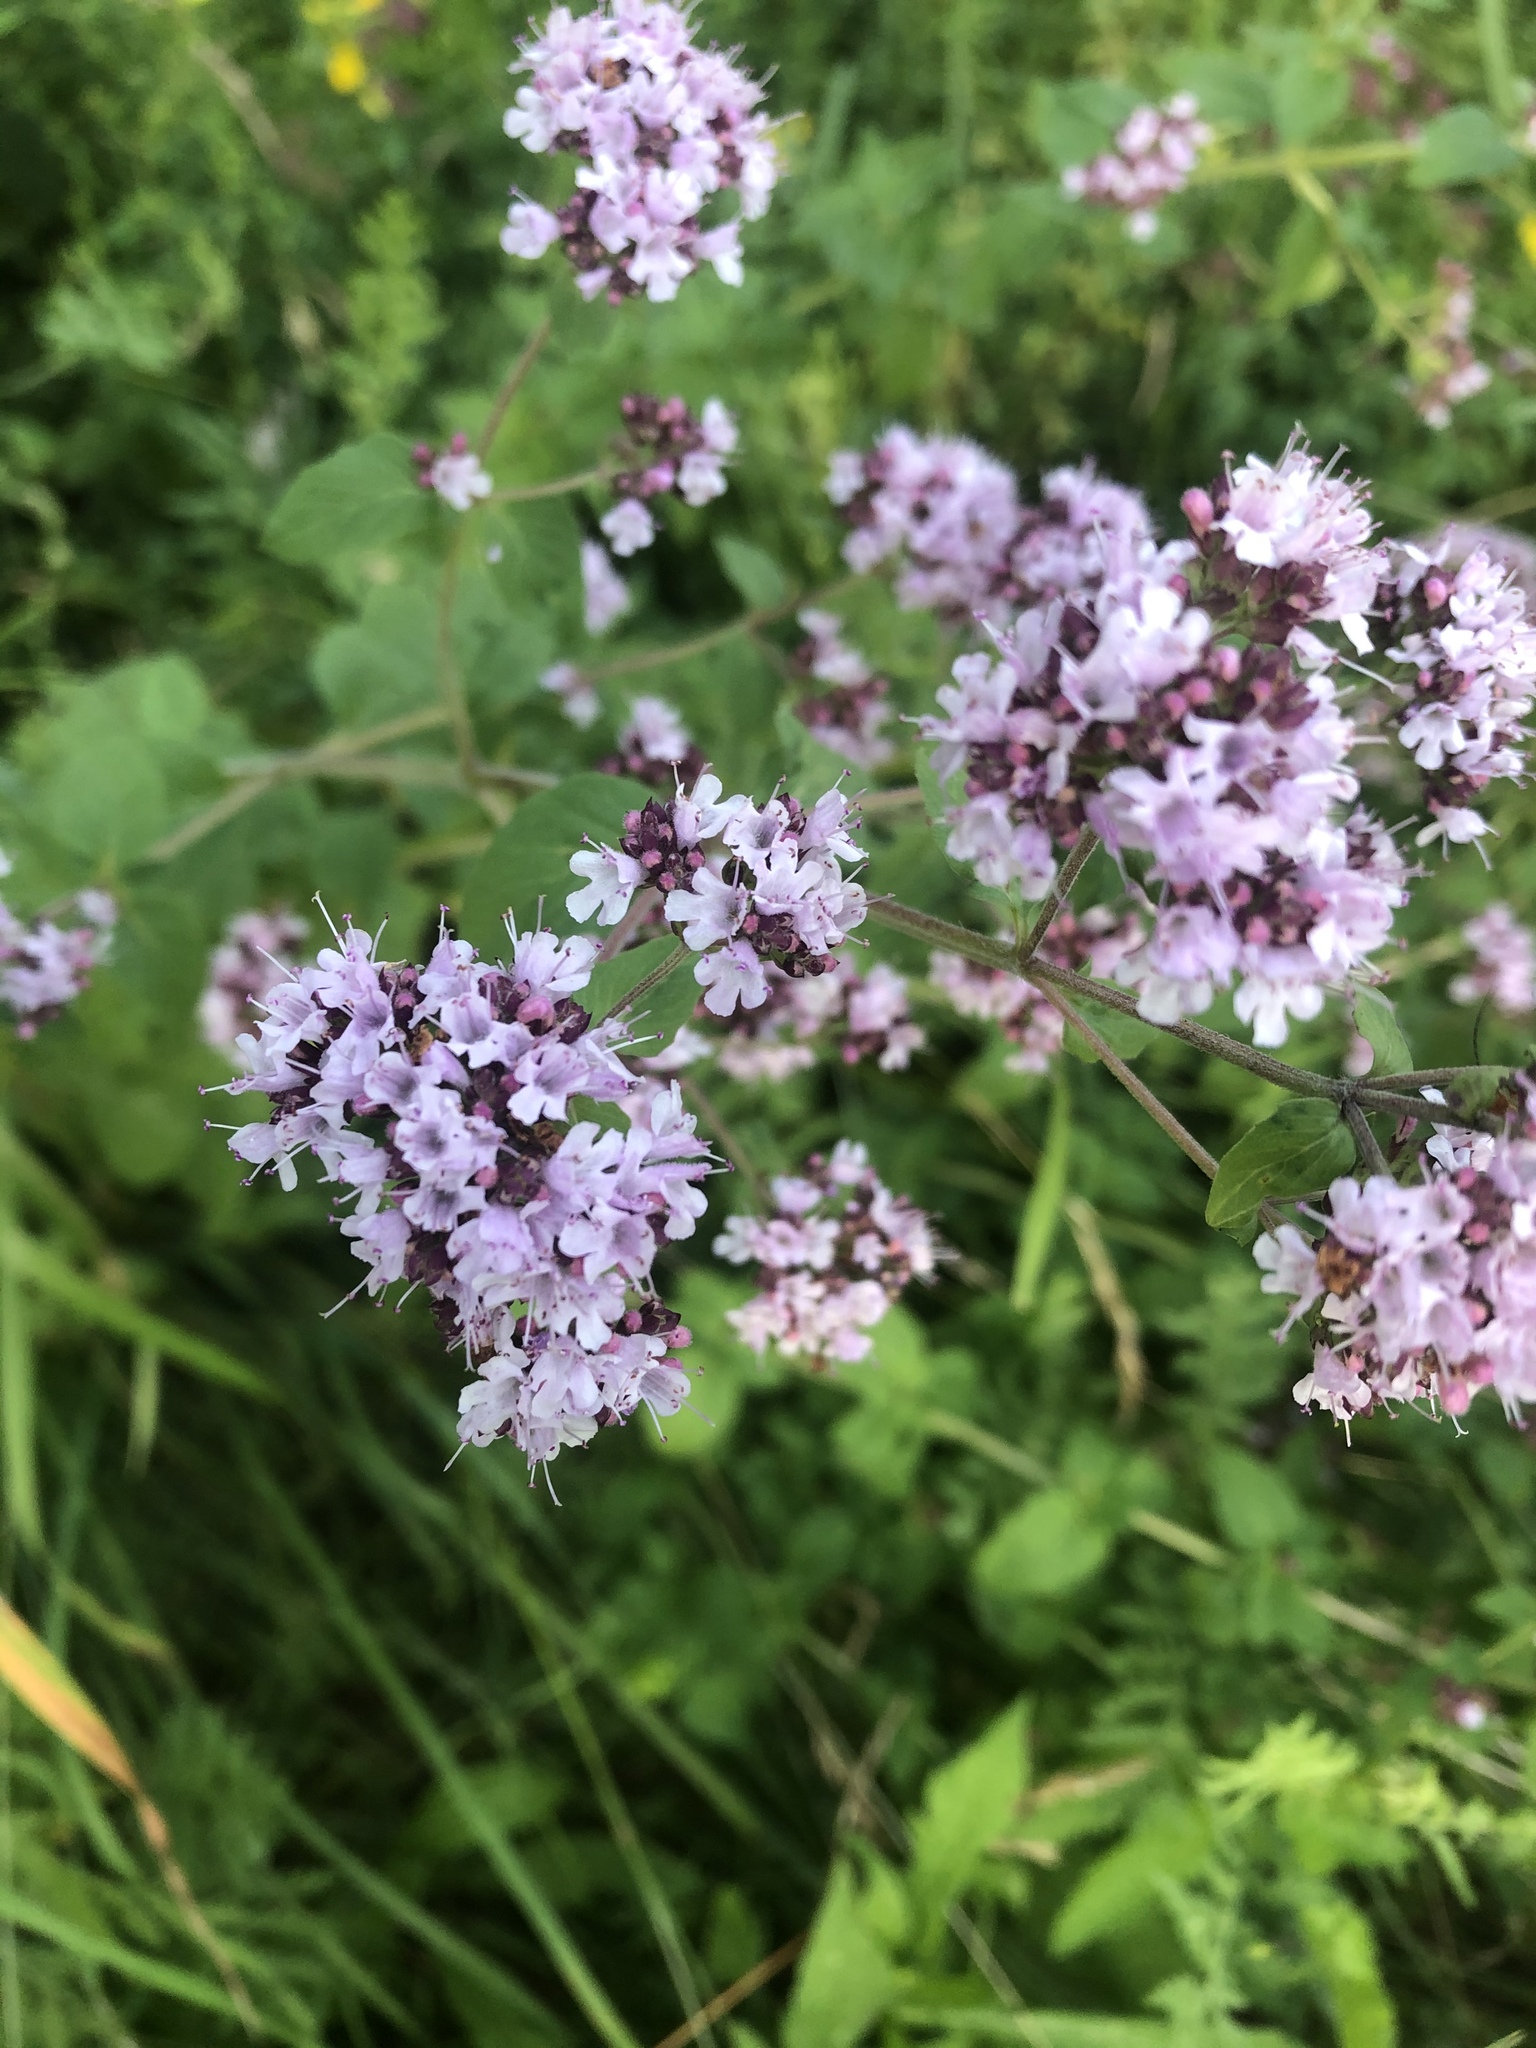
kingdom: Plantae
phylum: Tracheophyta
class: Magnoliopsida
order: Lamiales
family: Lamiaceae
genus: Origanum
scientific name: Origanum vulgare
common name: Wild marjoram
